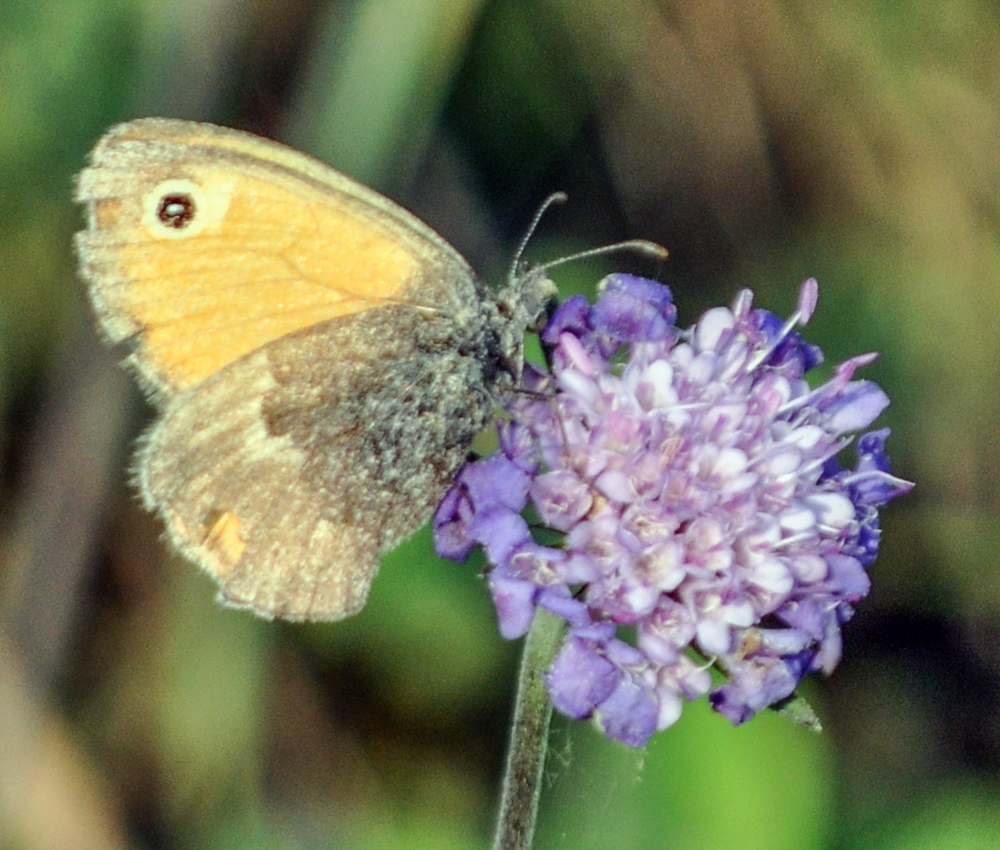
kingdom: Animalia
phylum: Arthropoda
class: Insecta
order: Lepidoptera
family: Nymphalidae
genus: Coenonympha
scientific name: Coenonympha pamphilus
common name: Small heath
